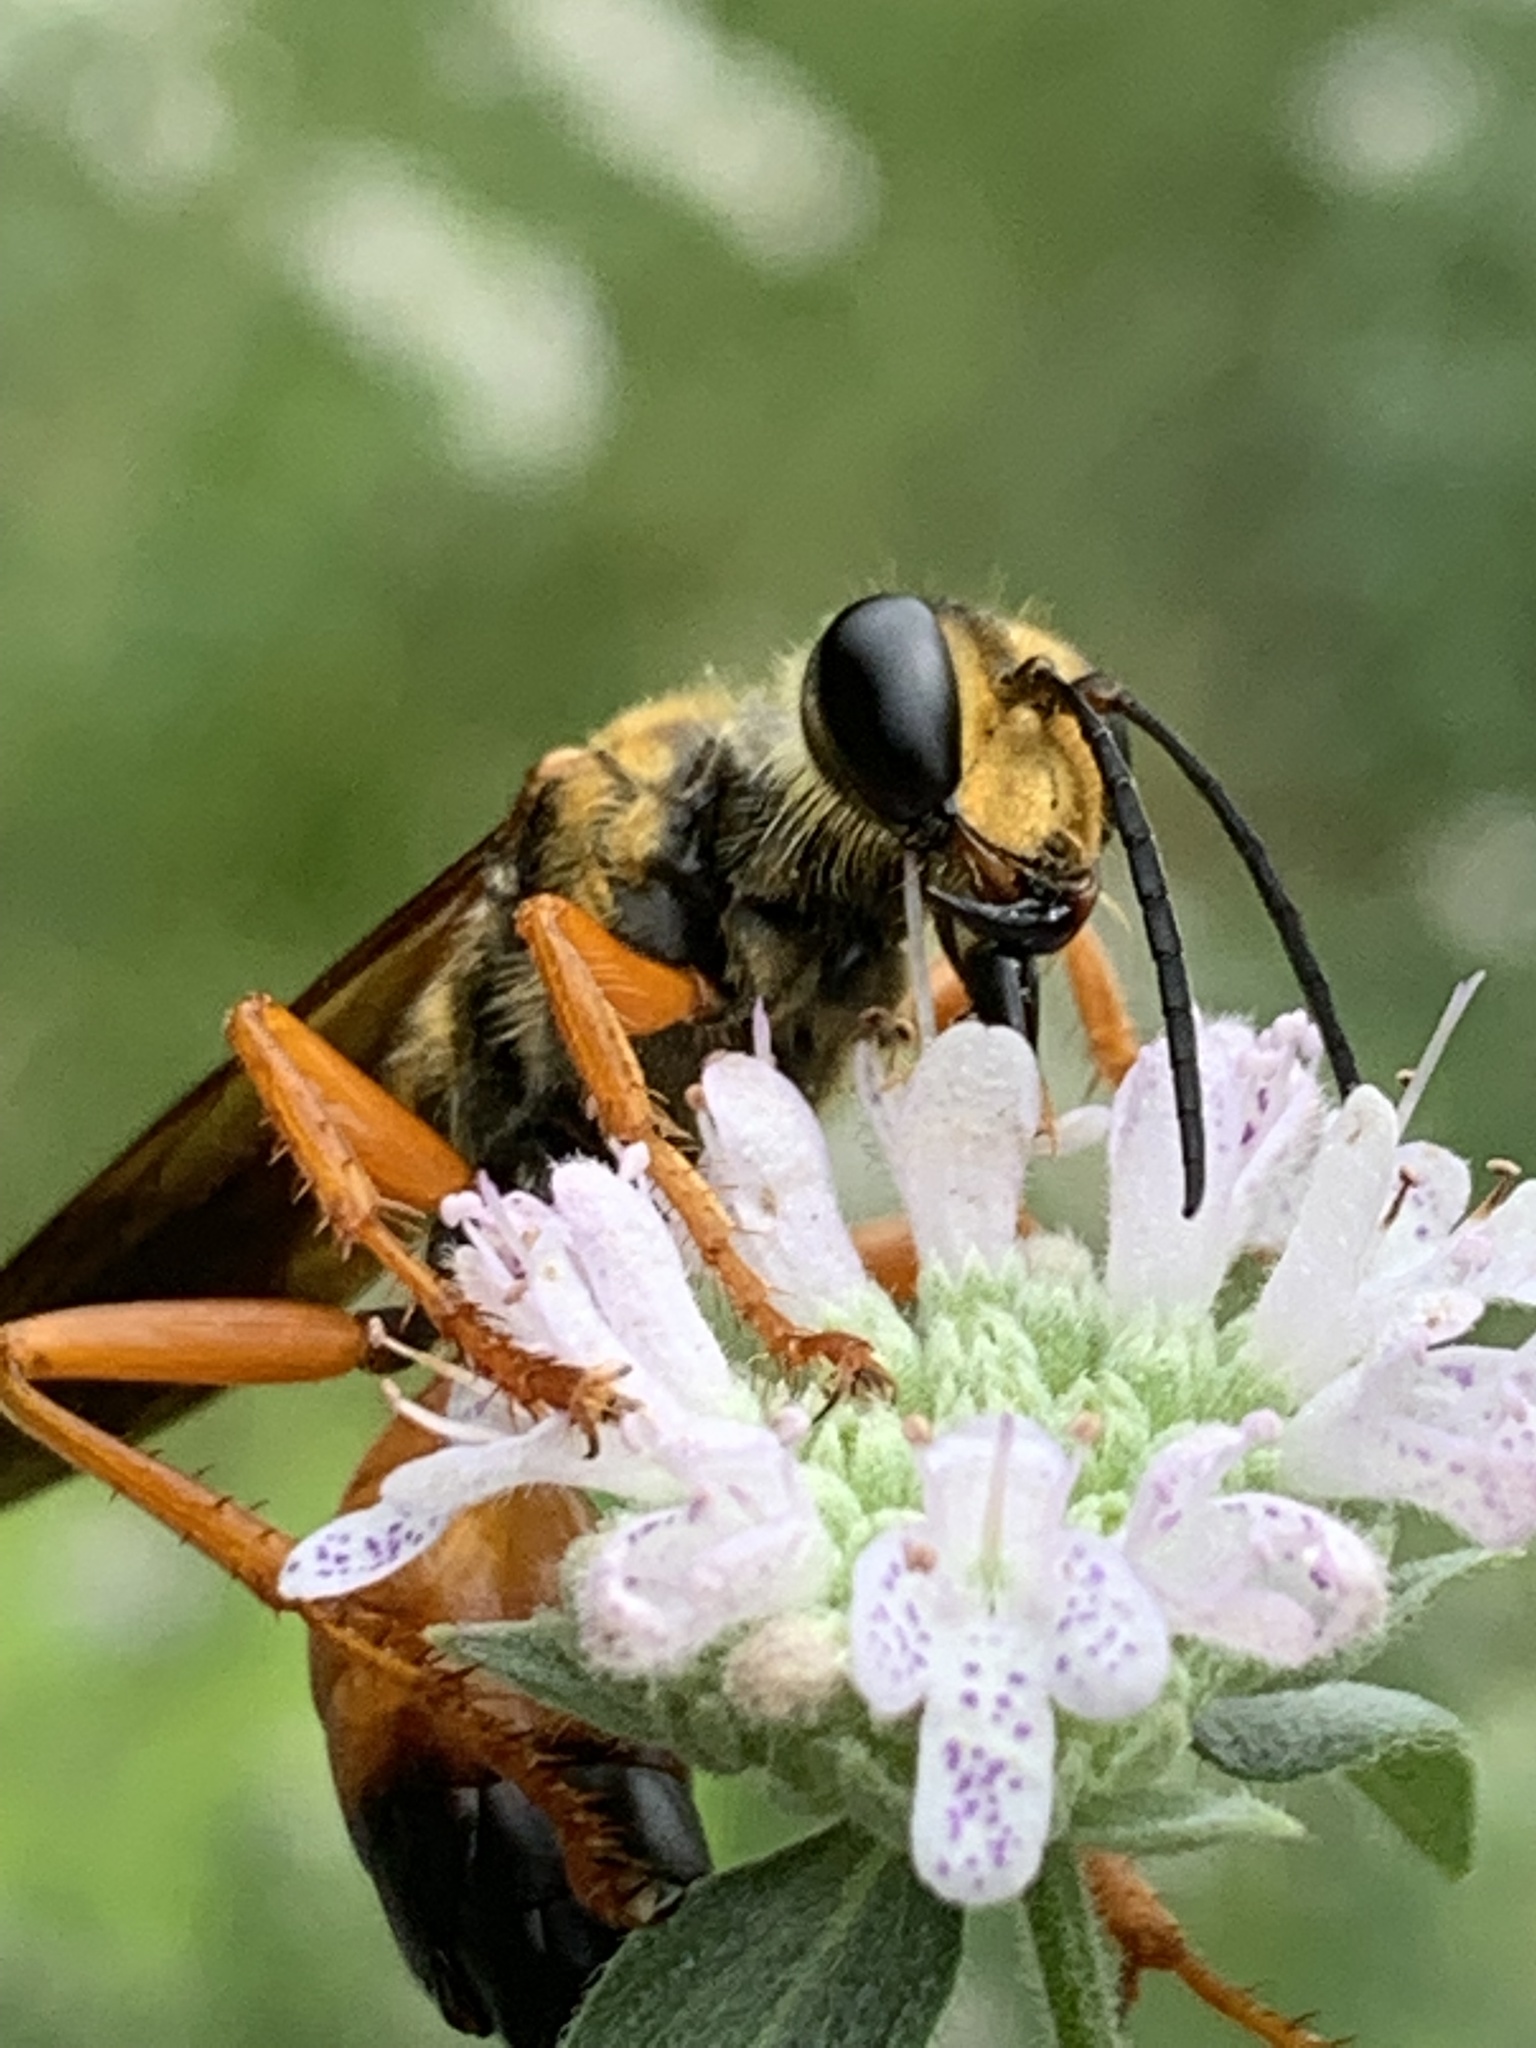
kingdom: Animalia
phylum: Arthropoda
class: Insecta
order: Hymenoptera
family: Sphecidae
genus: Sphex
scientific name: Sphex ichneumoneus
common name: Great golden digger wasp
